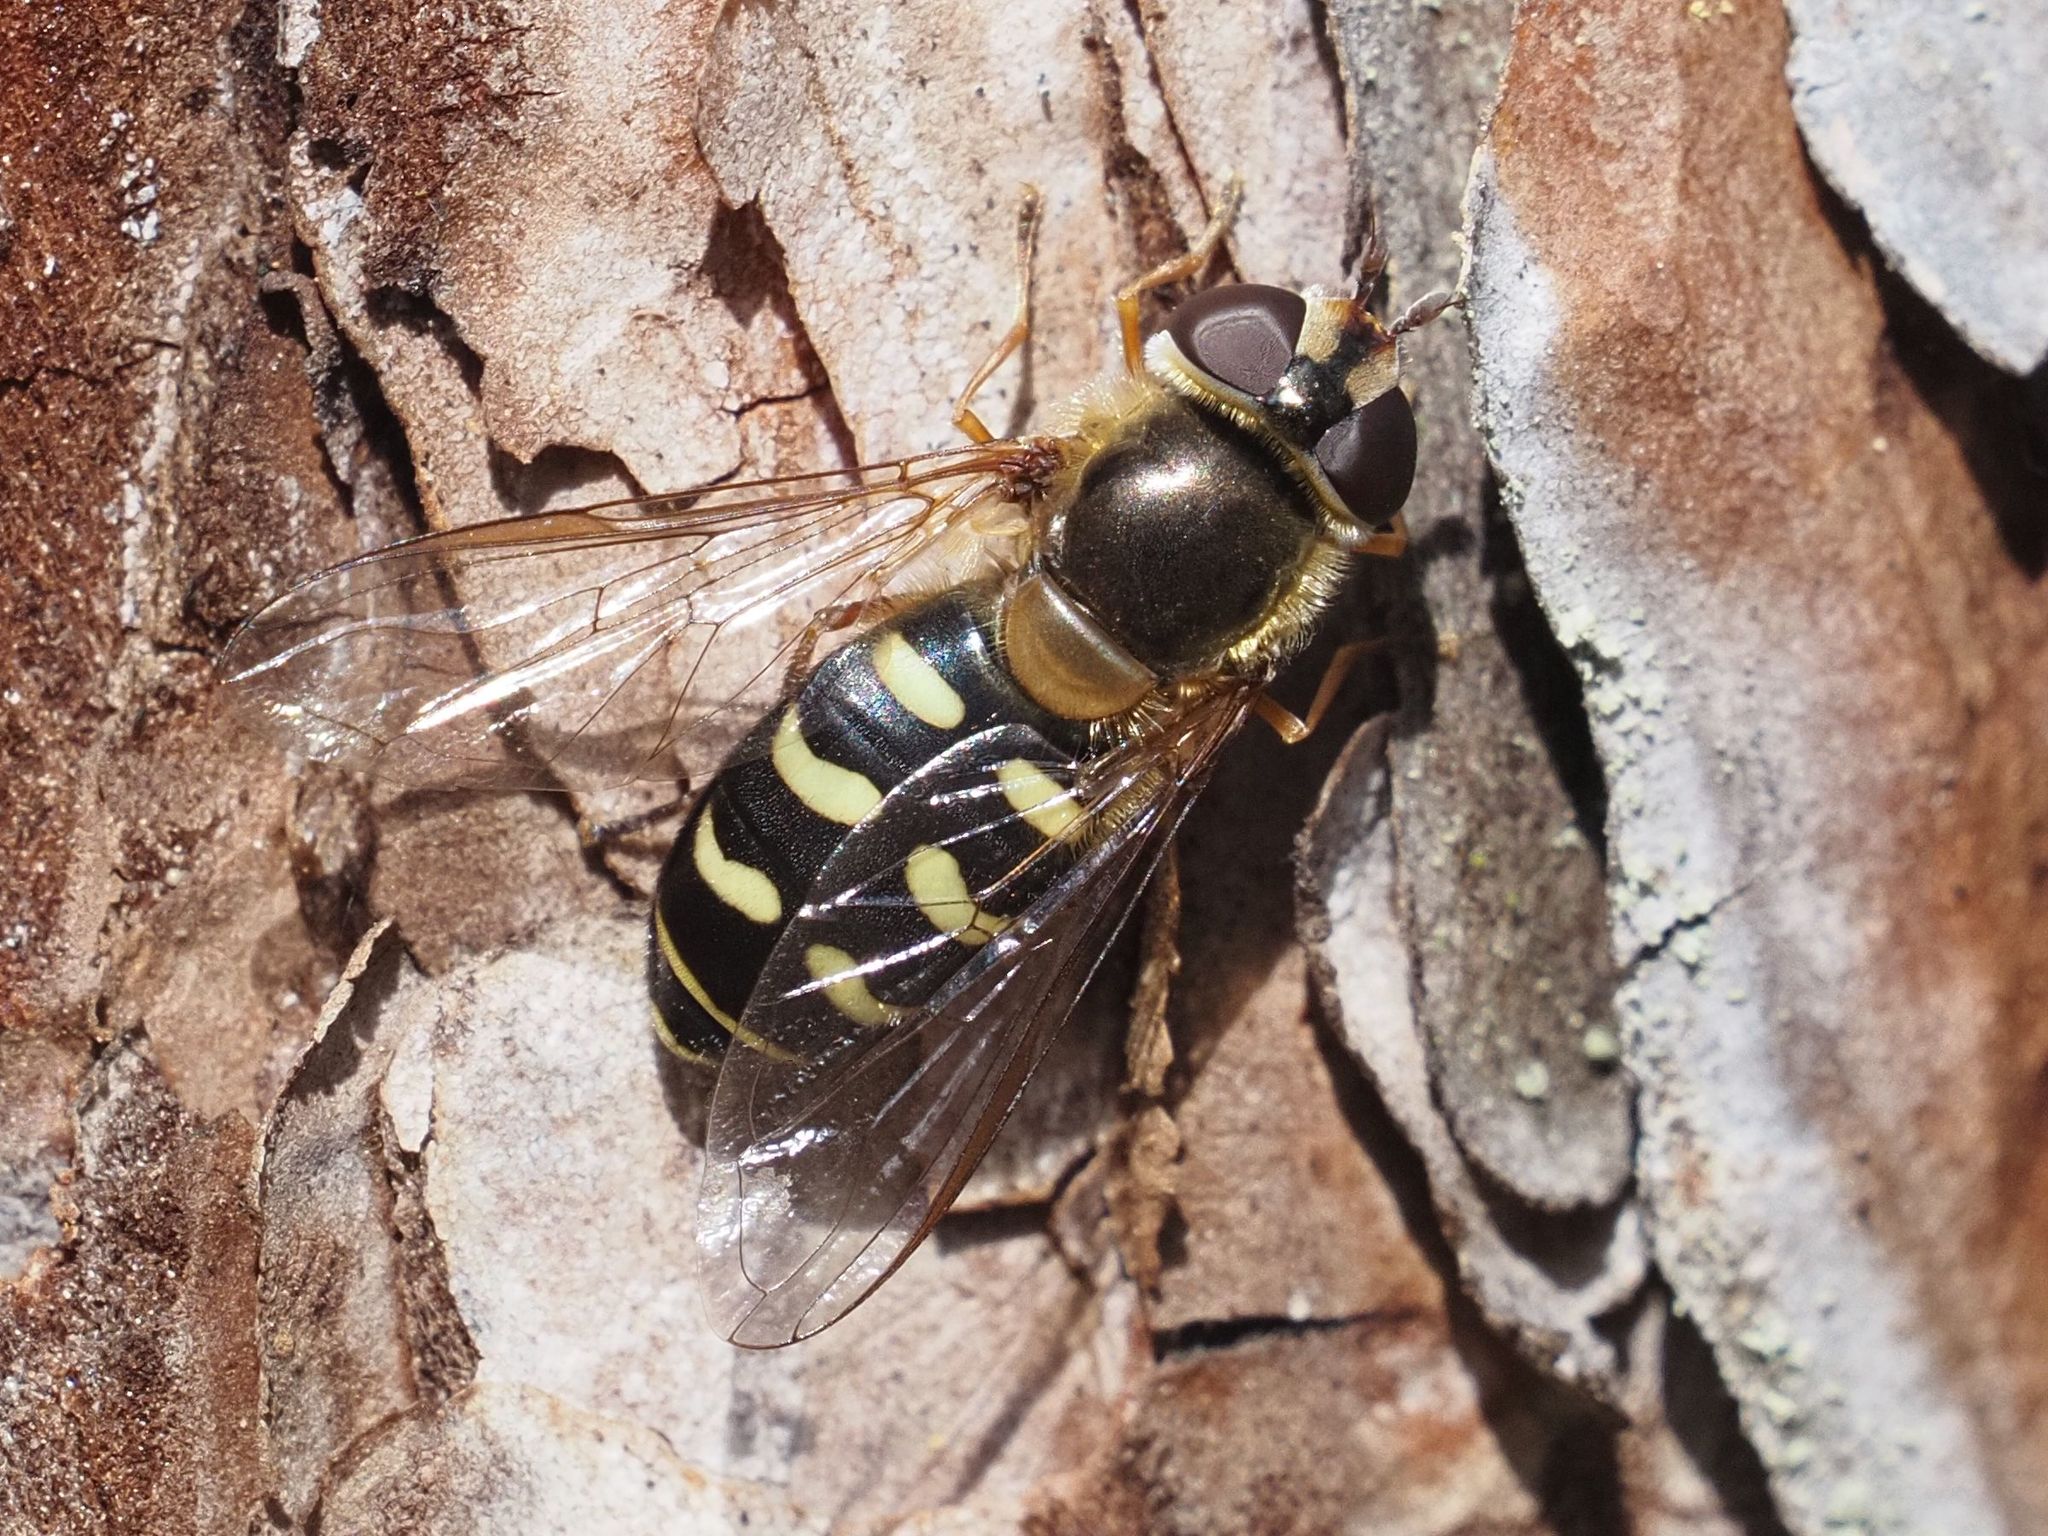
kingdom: Animalia
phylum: Arthropoda
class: Insecta
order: Diptera
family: Syrphidae
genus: Lapposyrphus
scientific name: Lapposyrphus lapponicus
